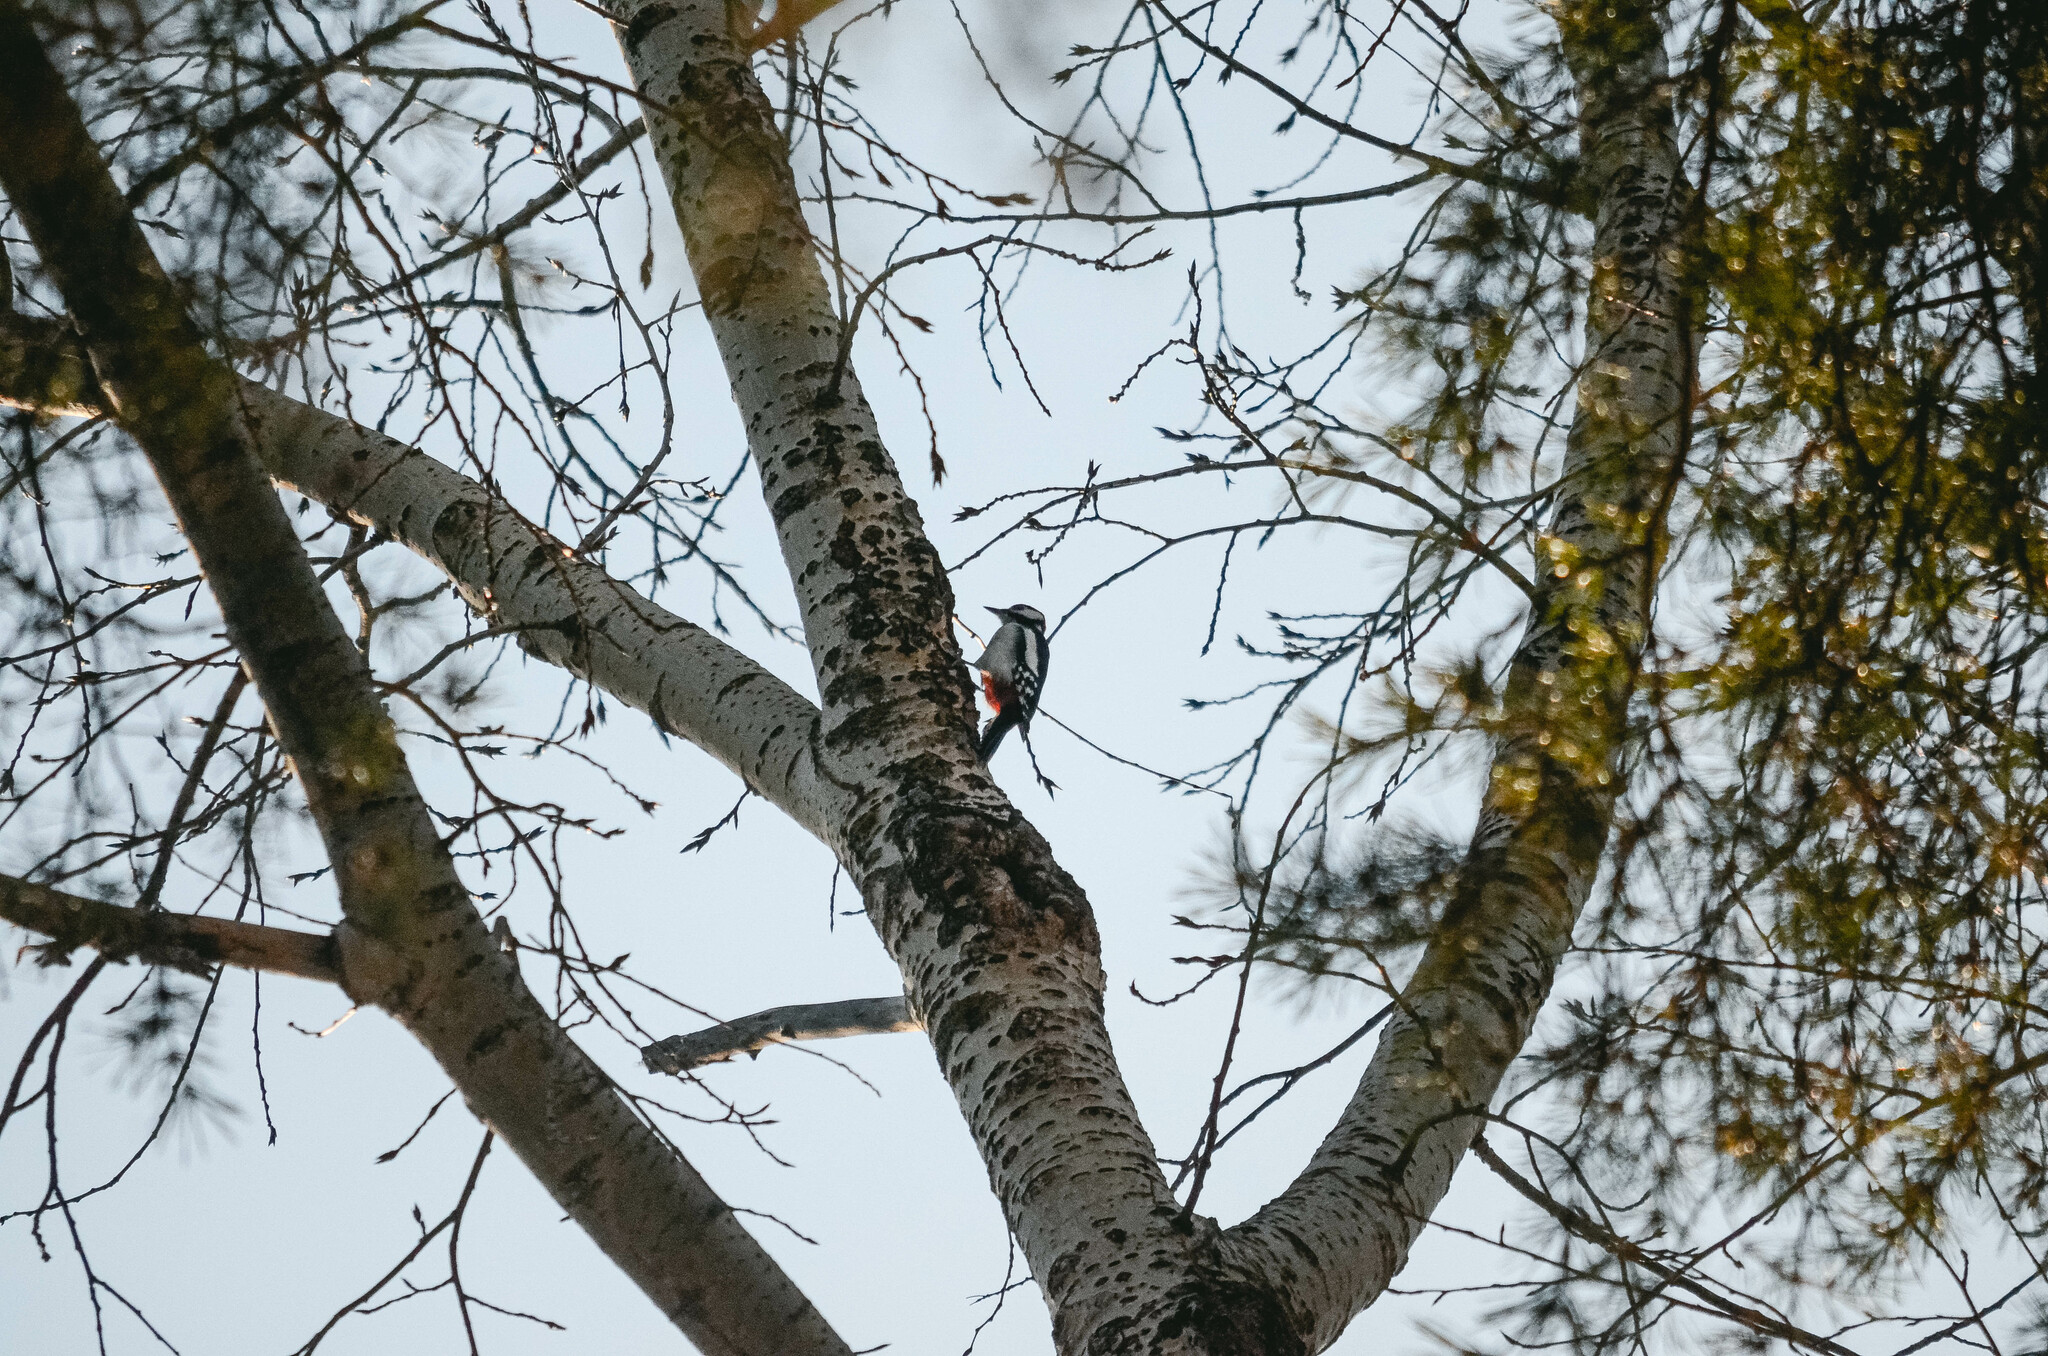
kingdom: Animalia
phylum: Chordata
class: Aves
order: Piciformes
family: Picidae
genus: Dendrocopos
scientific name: Dendrocopos major
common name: Great spotted woodpecker
